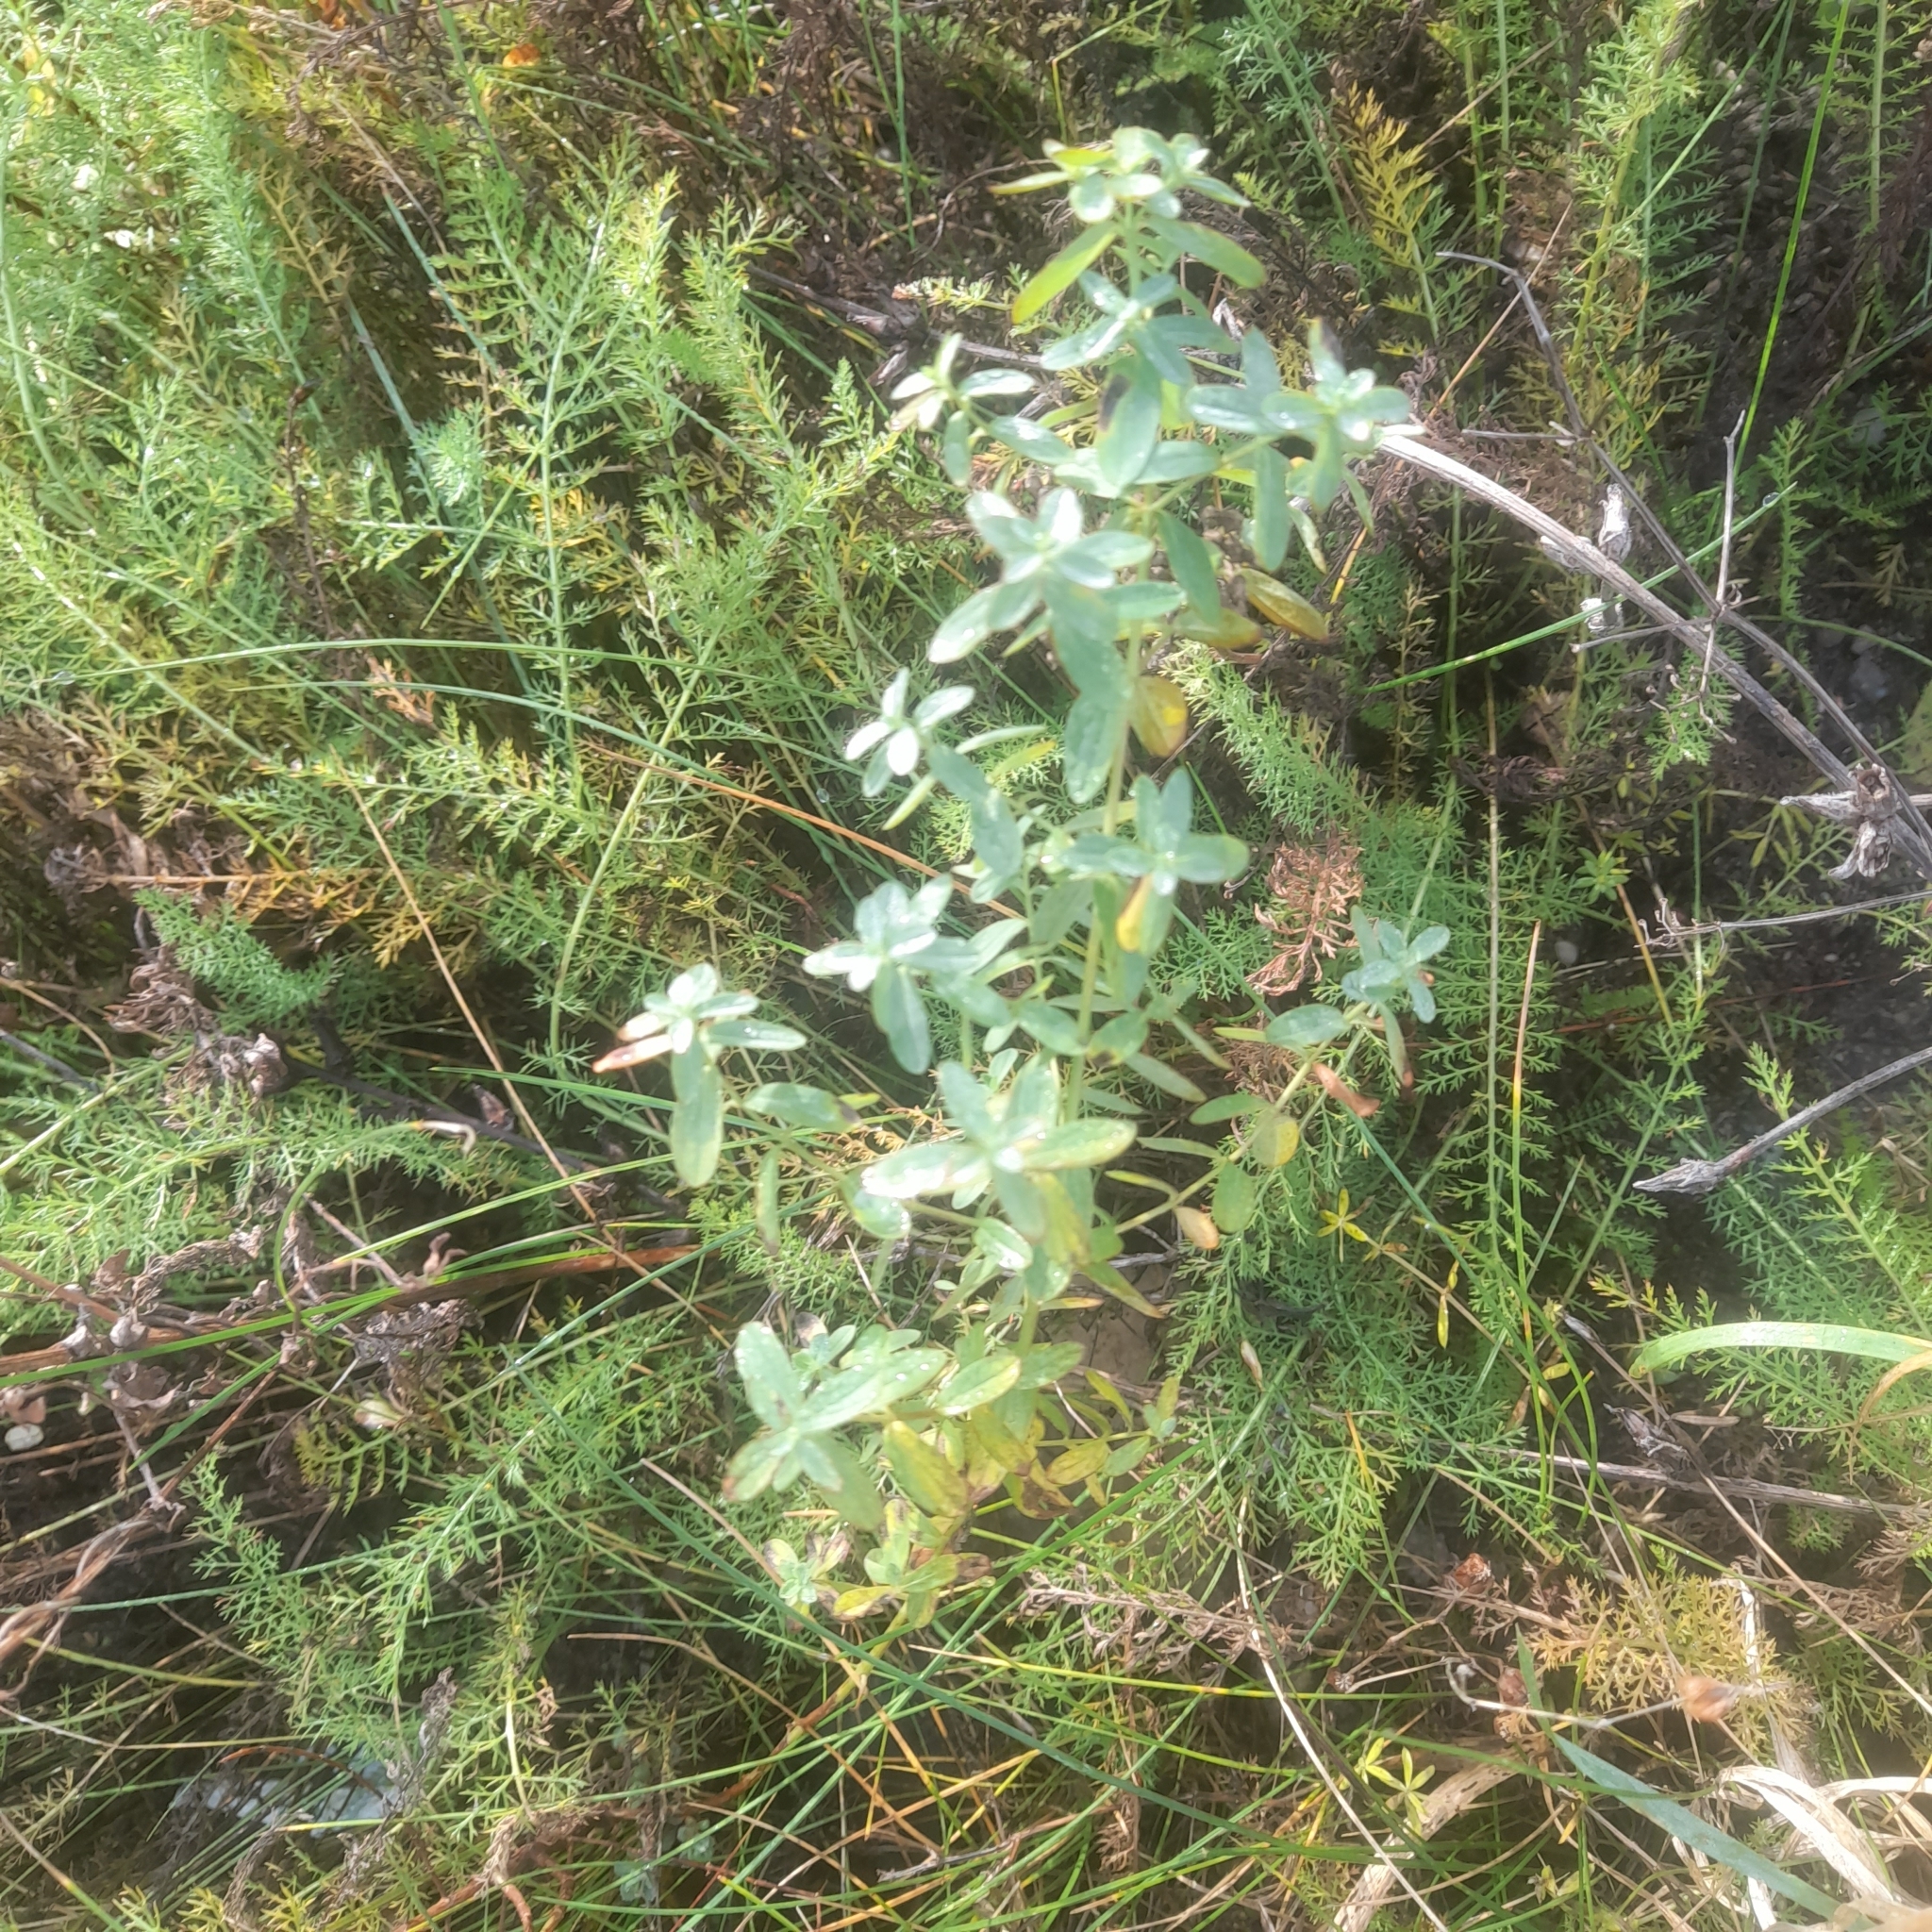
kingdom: Plantae
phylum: Tracheophyta
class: Magnoliopsida
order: Malpighiales
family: Hypericaceae
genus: Hypericum
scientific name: Hypericum perforatum
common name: Common st. johnswort
